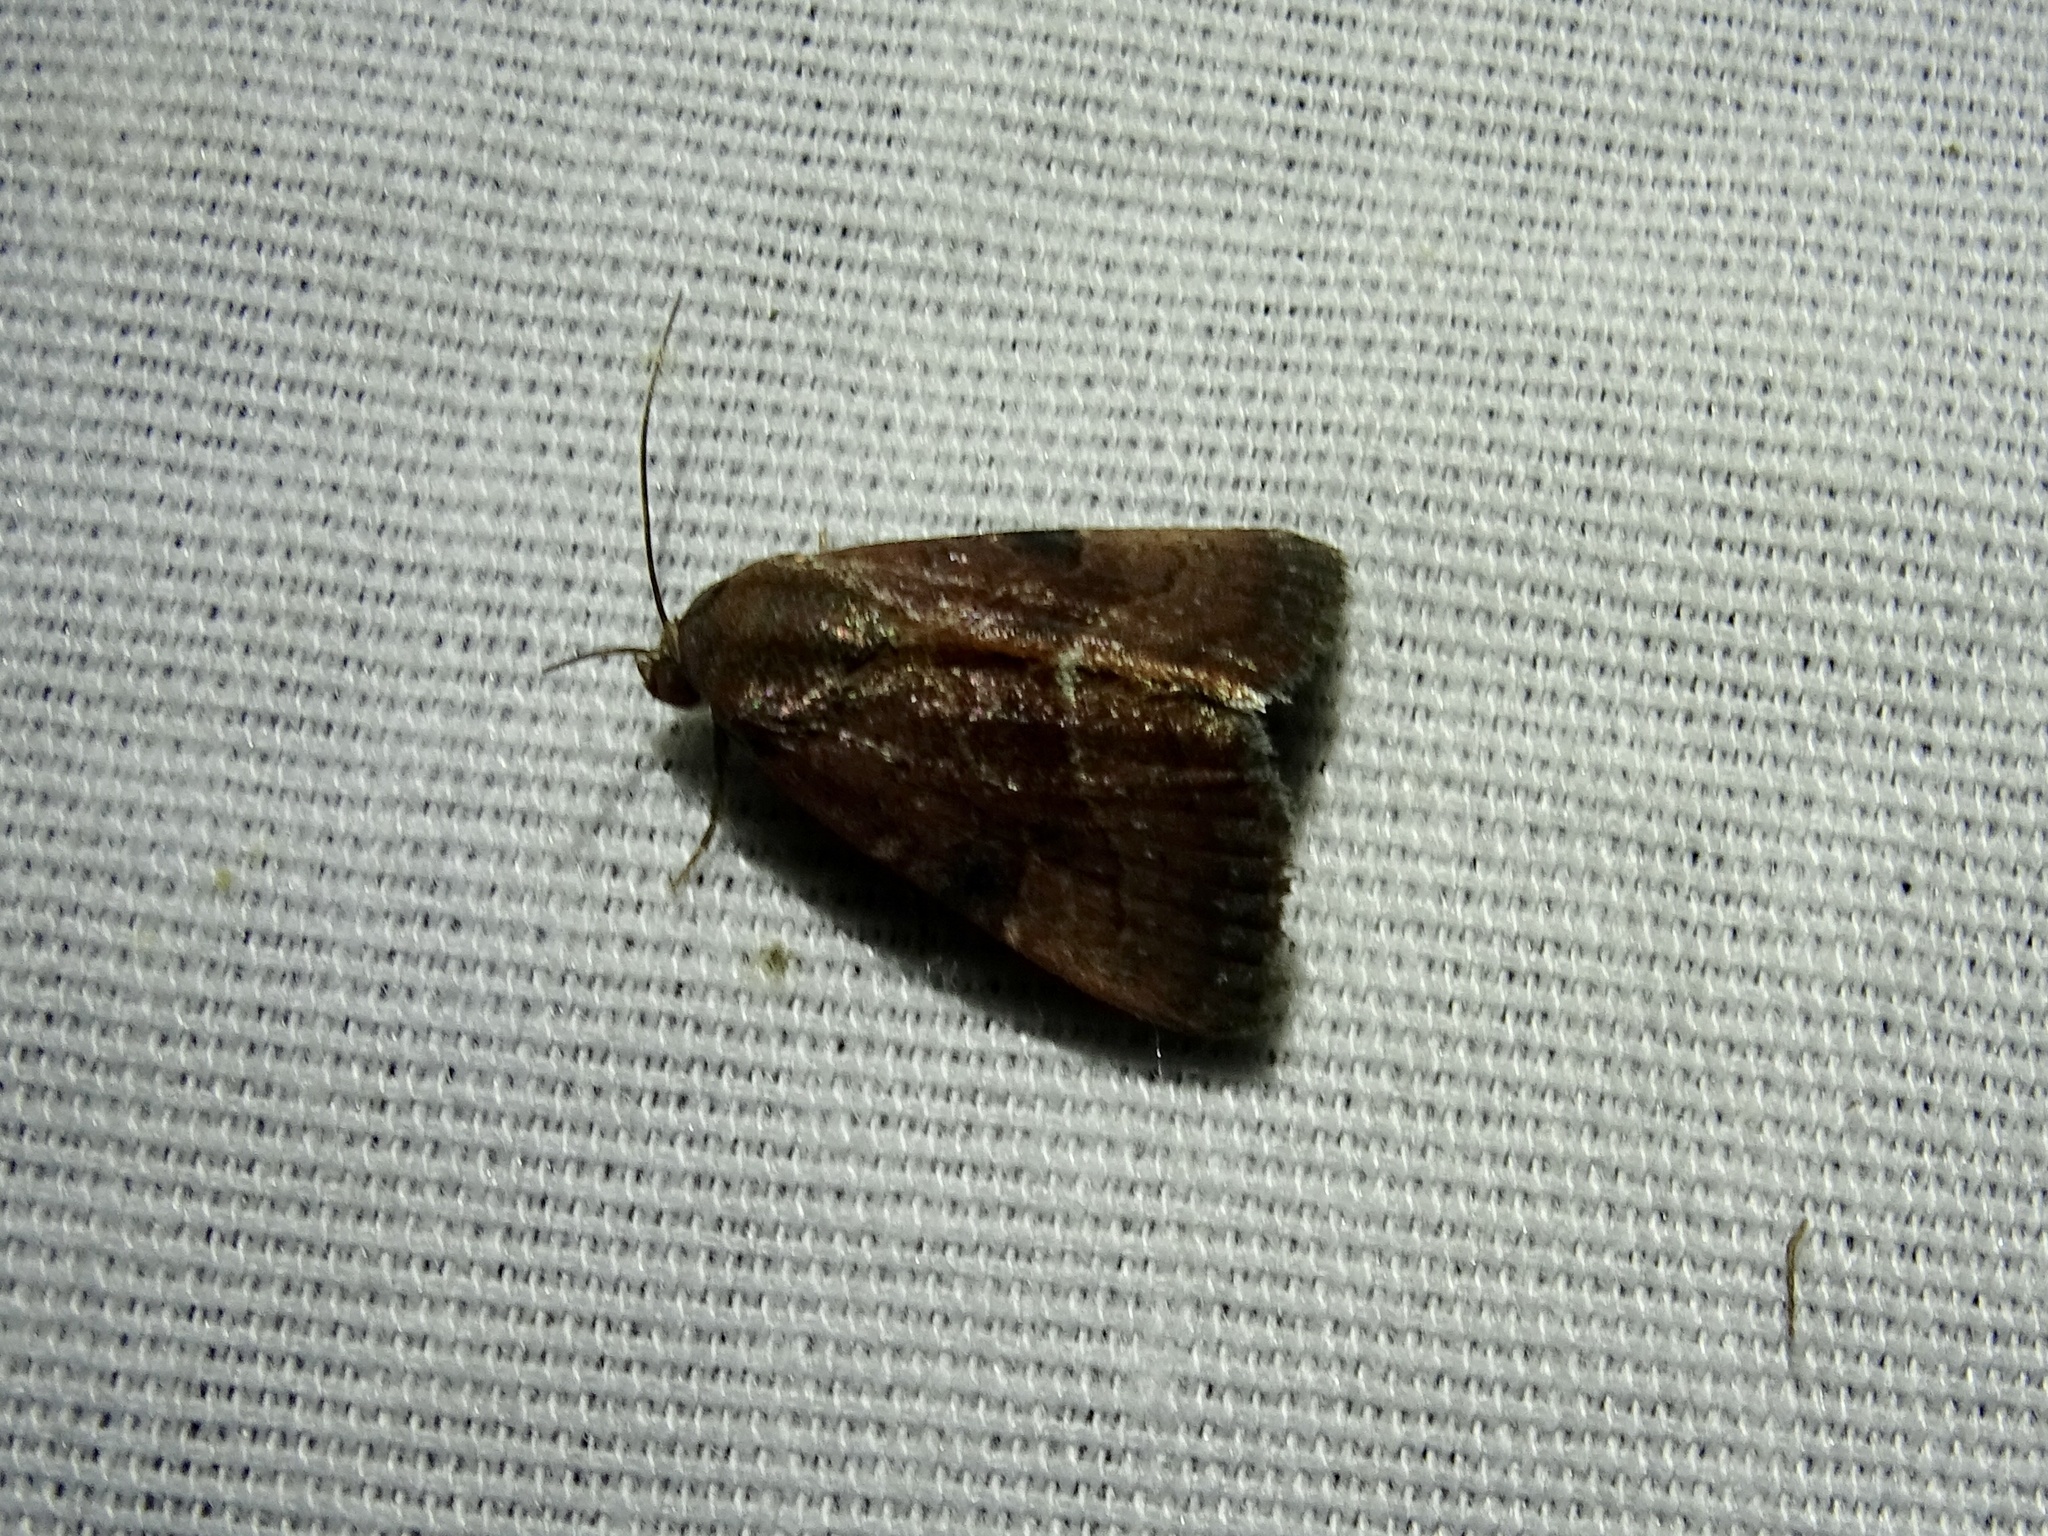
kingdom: Animalia
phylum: Arthropoda
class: Insecta
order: Lepidoptera
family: Noctuidae
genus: Galgula
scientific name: Galgula partita
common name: Wedgeling
